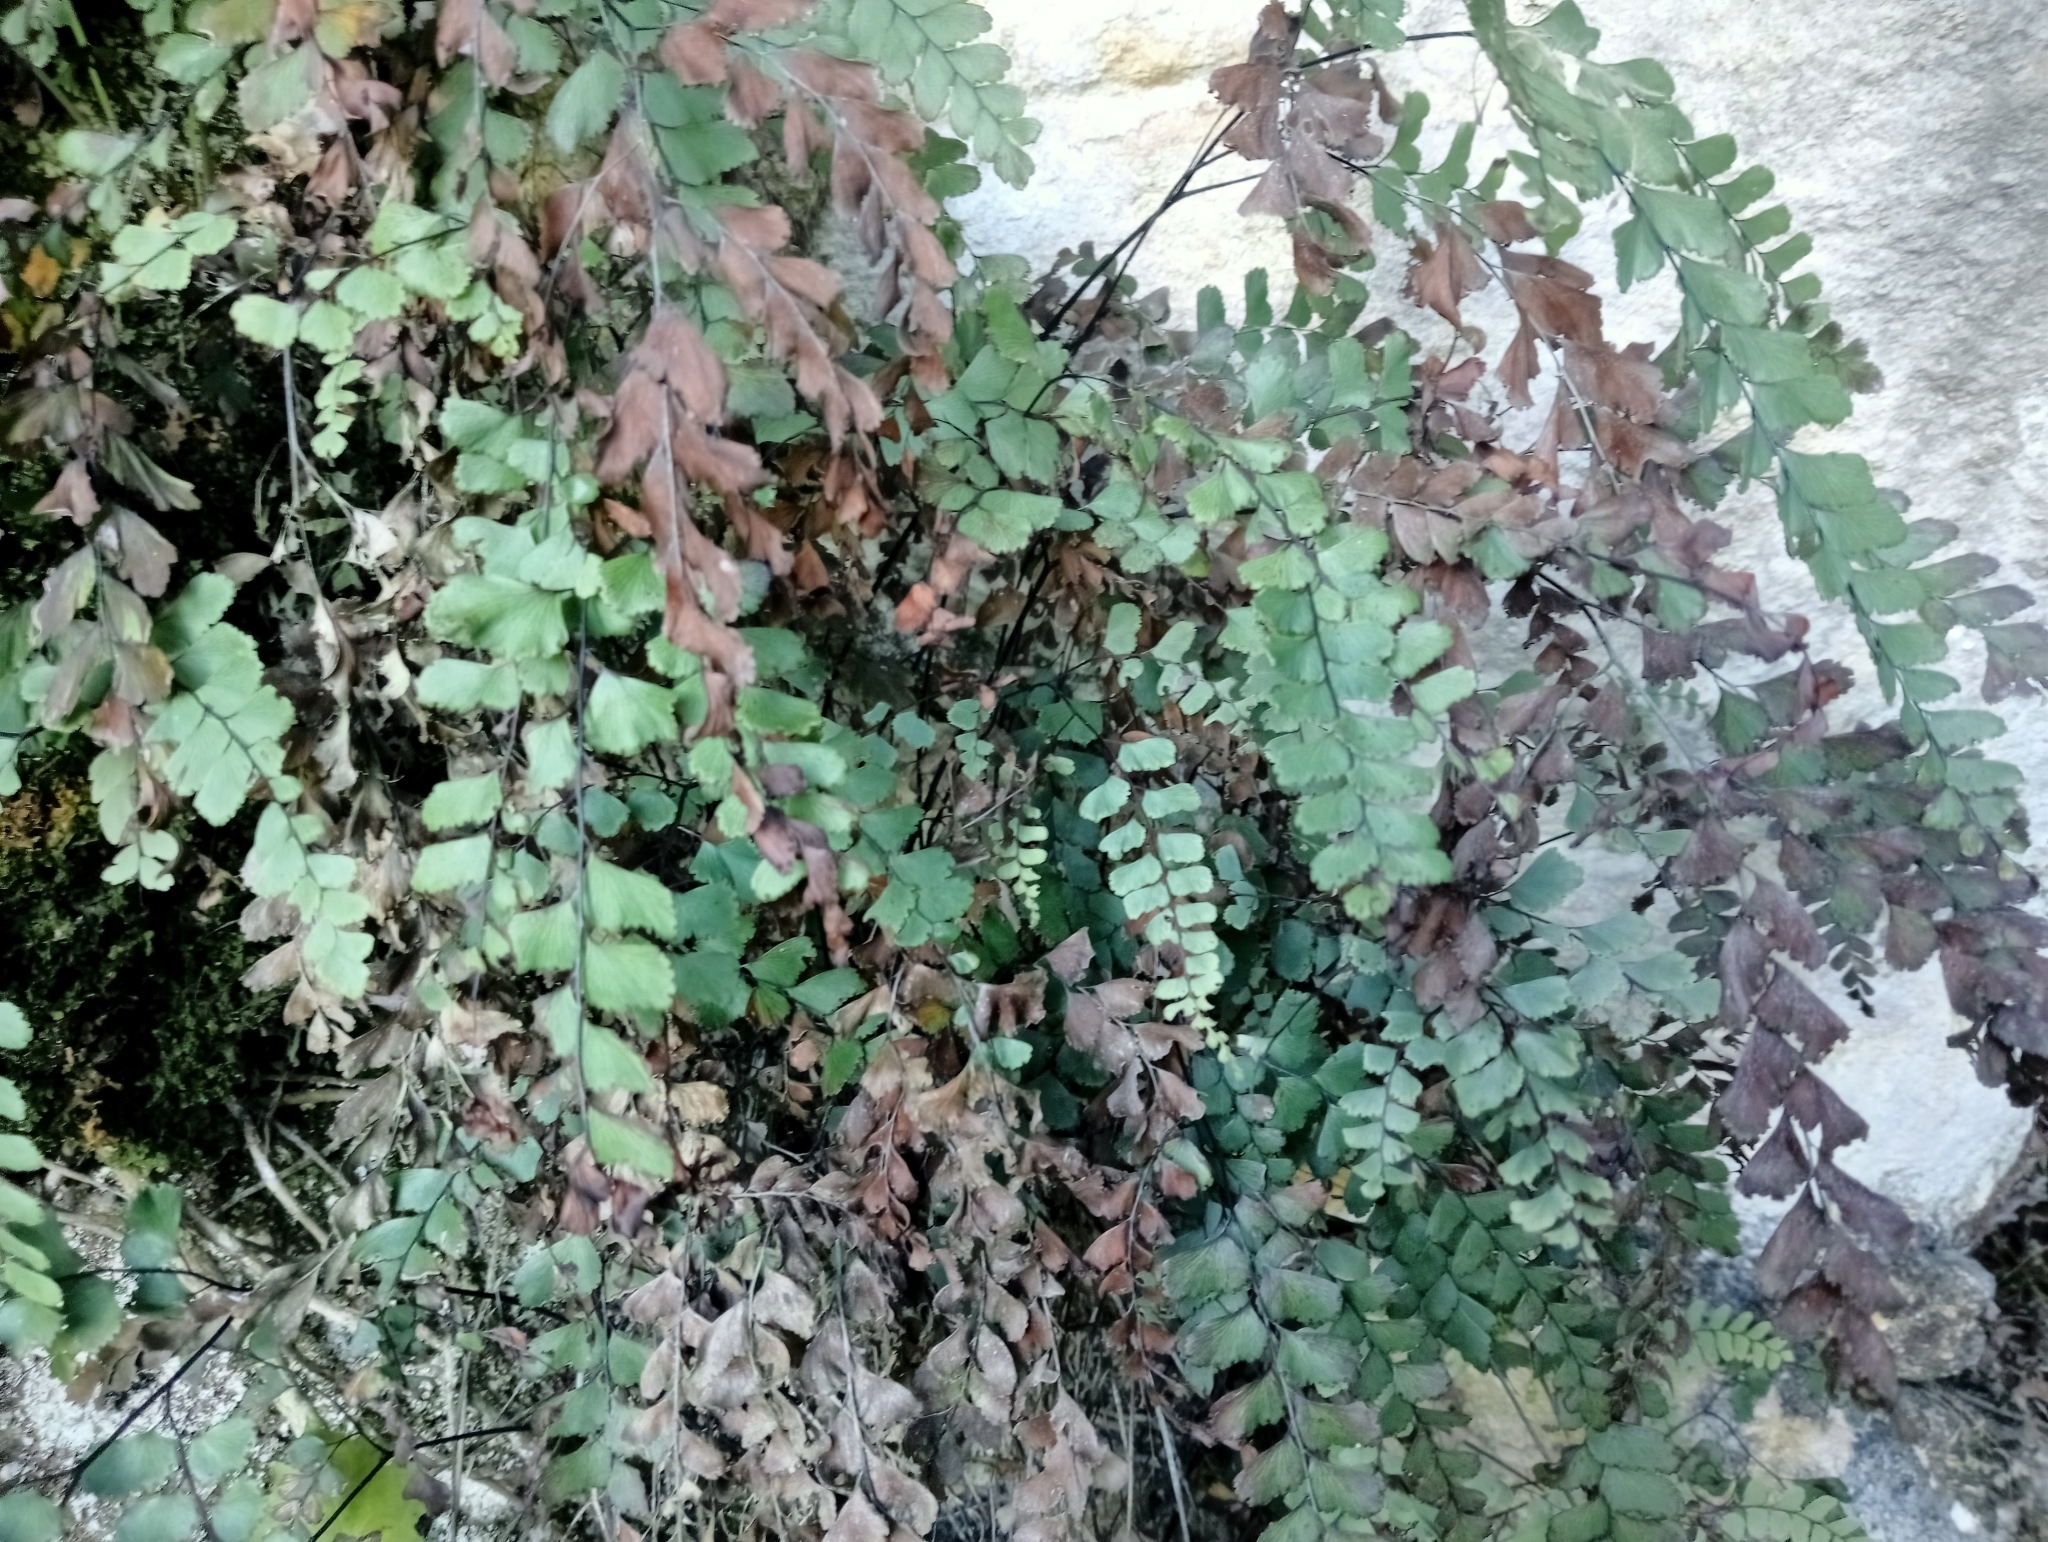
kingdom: Plantae
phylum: Tracheophyta
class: Polypodiopsida
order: Polypodiales
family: Pteridaceae
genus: Adiantum
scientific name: Adiantum cunninghamii
